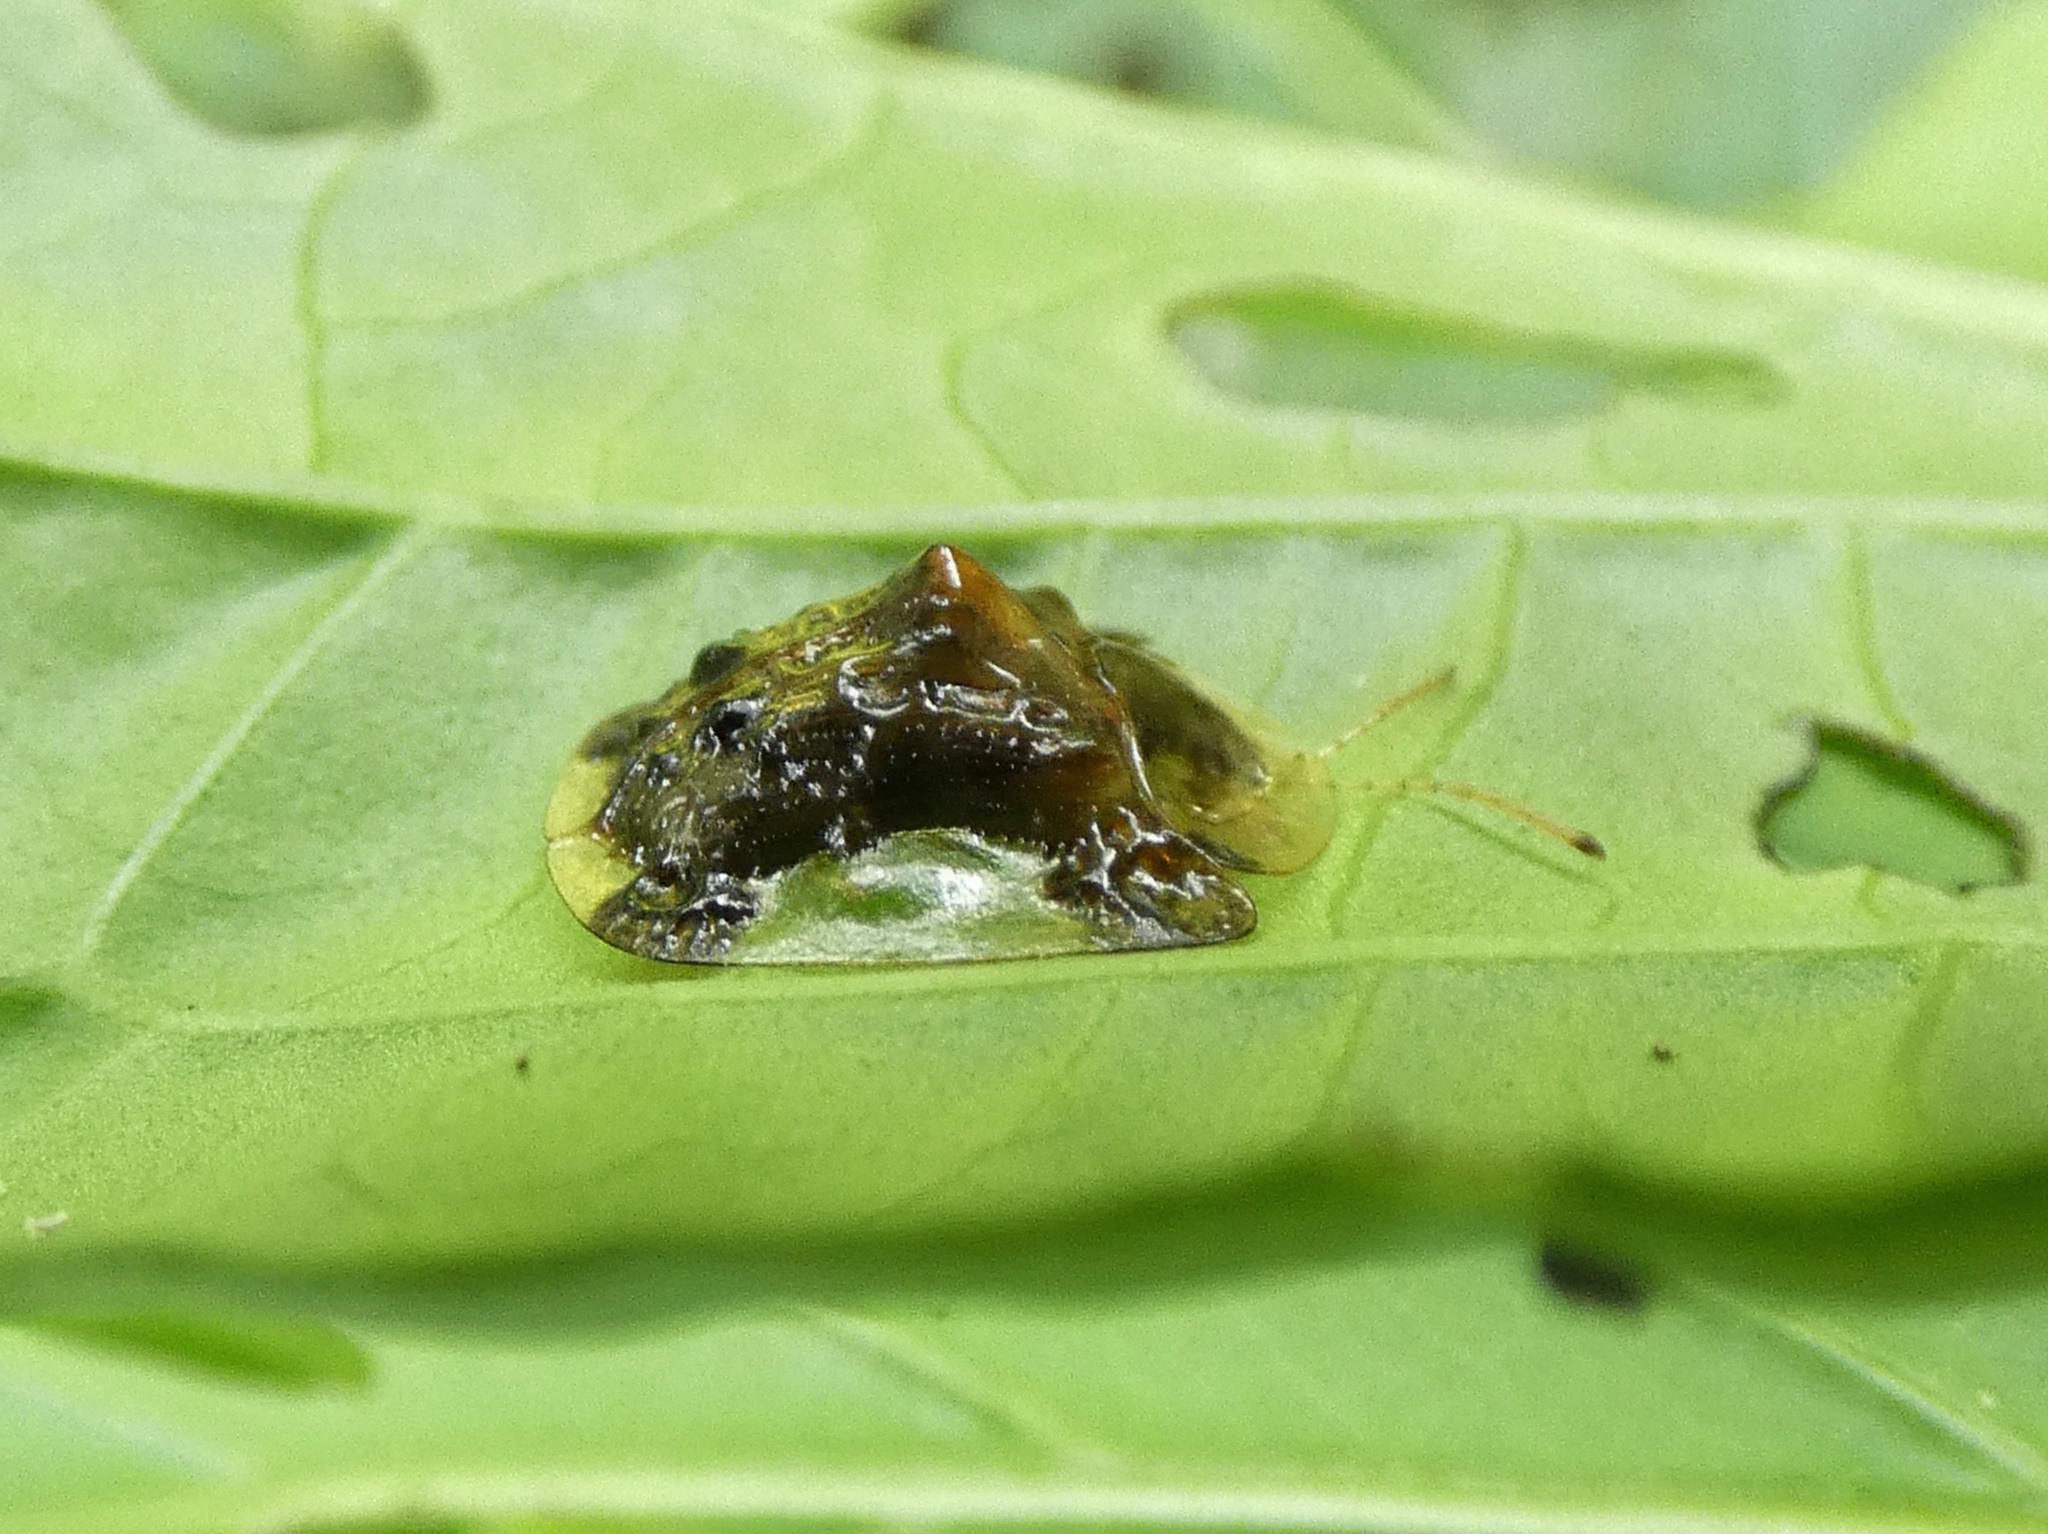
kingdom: Animalia
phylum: Arthropoda
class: Insecta
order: Coleoptera
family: Chrysomelidae
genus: Helocassis
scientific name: Helocassis testudinaria
